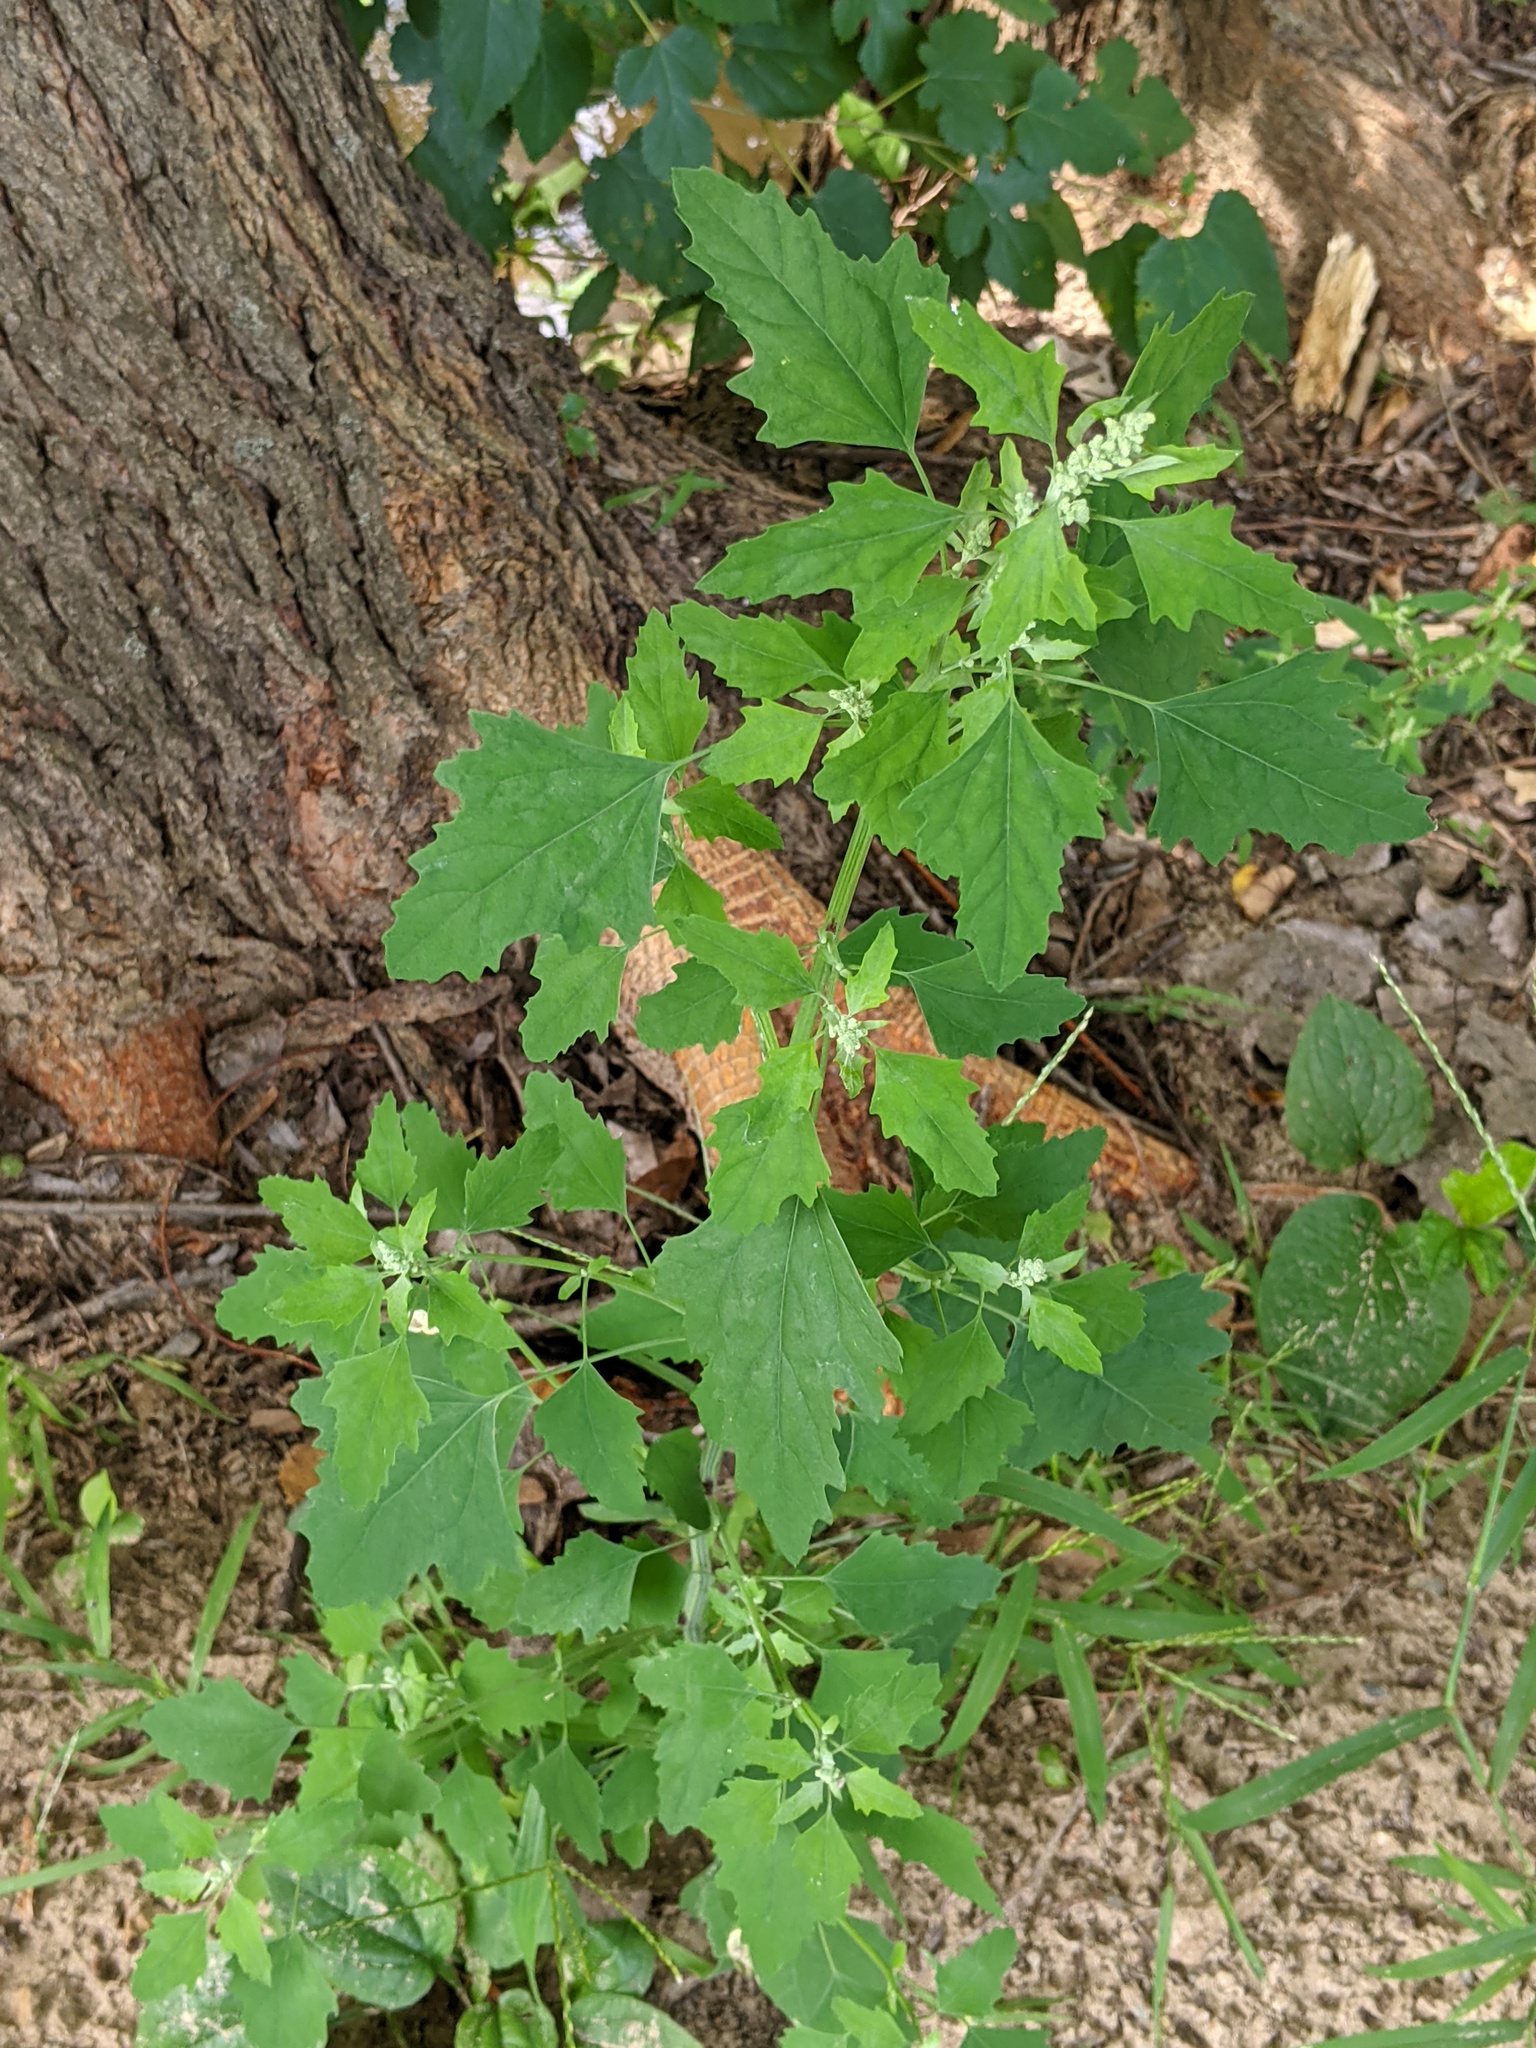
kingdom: Plantae
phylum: Tracheophyta
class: Magnoliopsida
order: Caryophyllales
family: Amaranthaceae
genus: Chenopodium
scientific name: Chenopodium album
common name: Fat-hen
